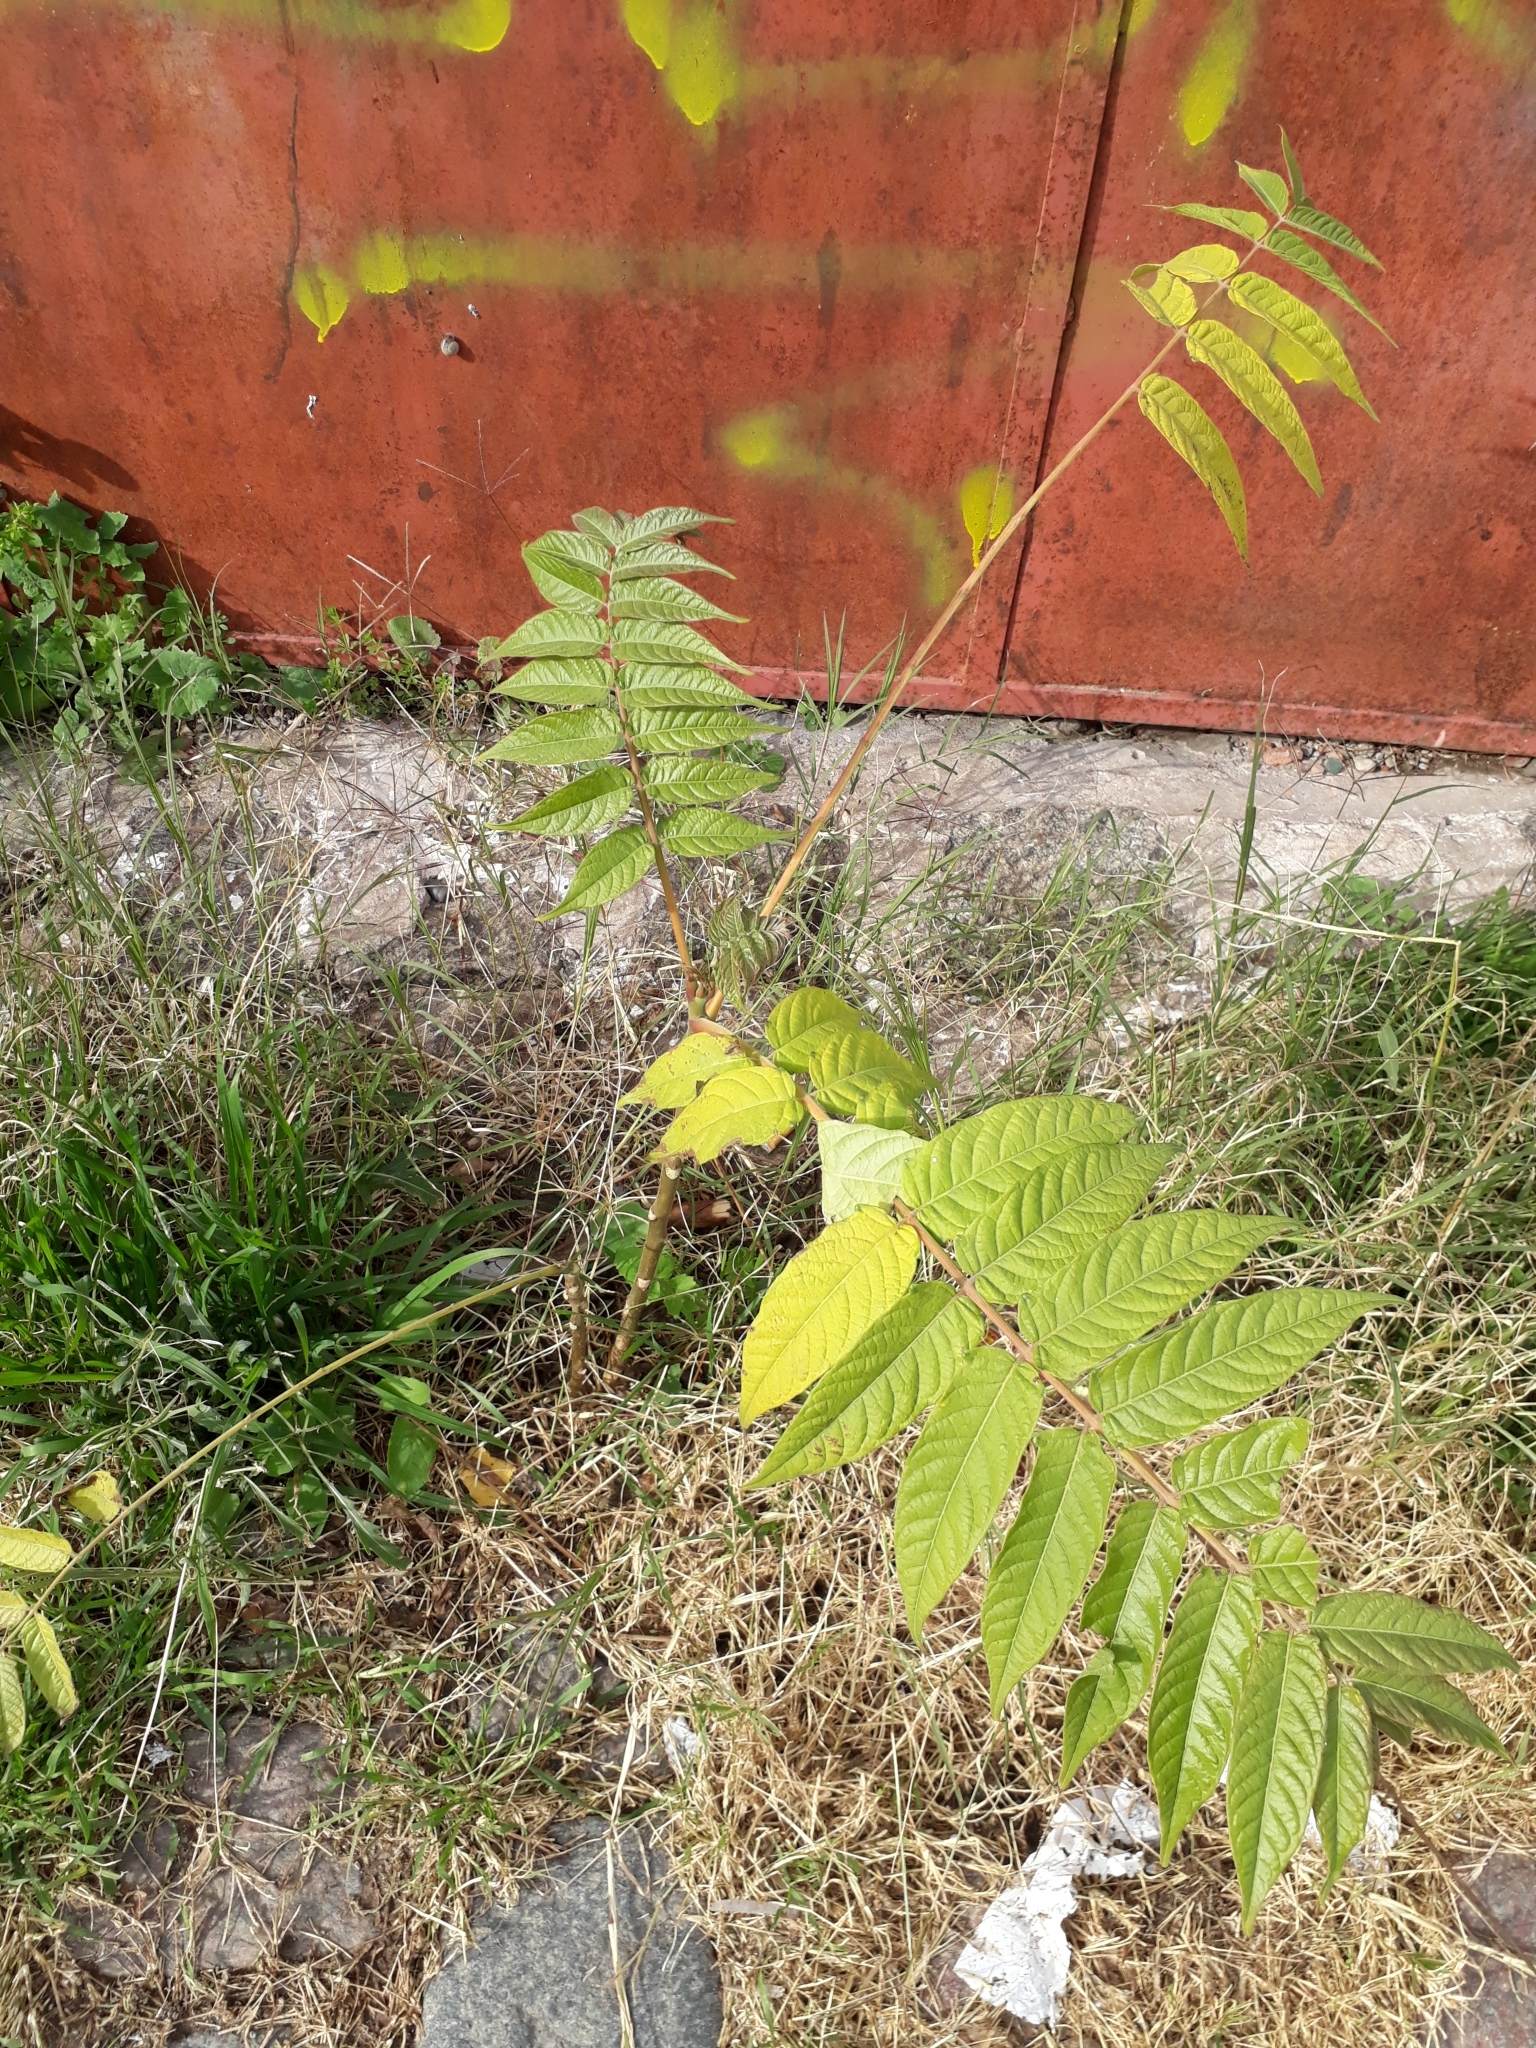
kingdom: Plantae
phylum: Tracheophyta
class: Magnoliopsida
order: Sapindales
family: Simaroubaceae
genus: Ailanthus
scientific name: Ailanthus altissima
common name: Tree-of-heaven
